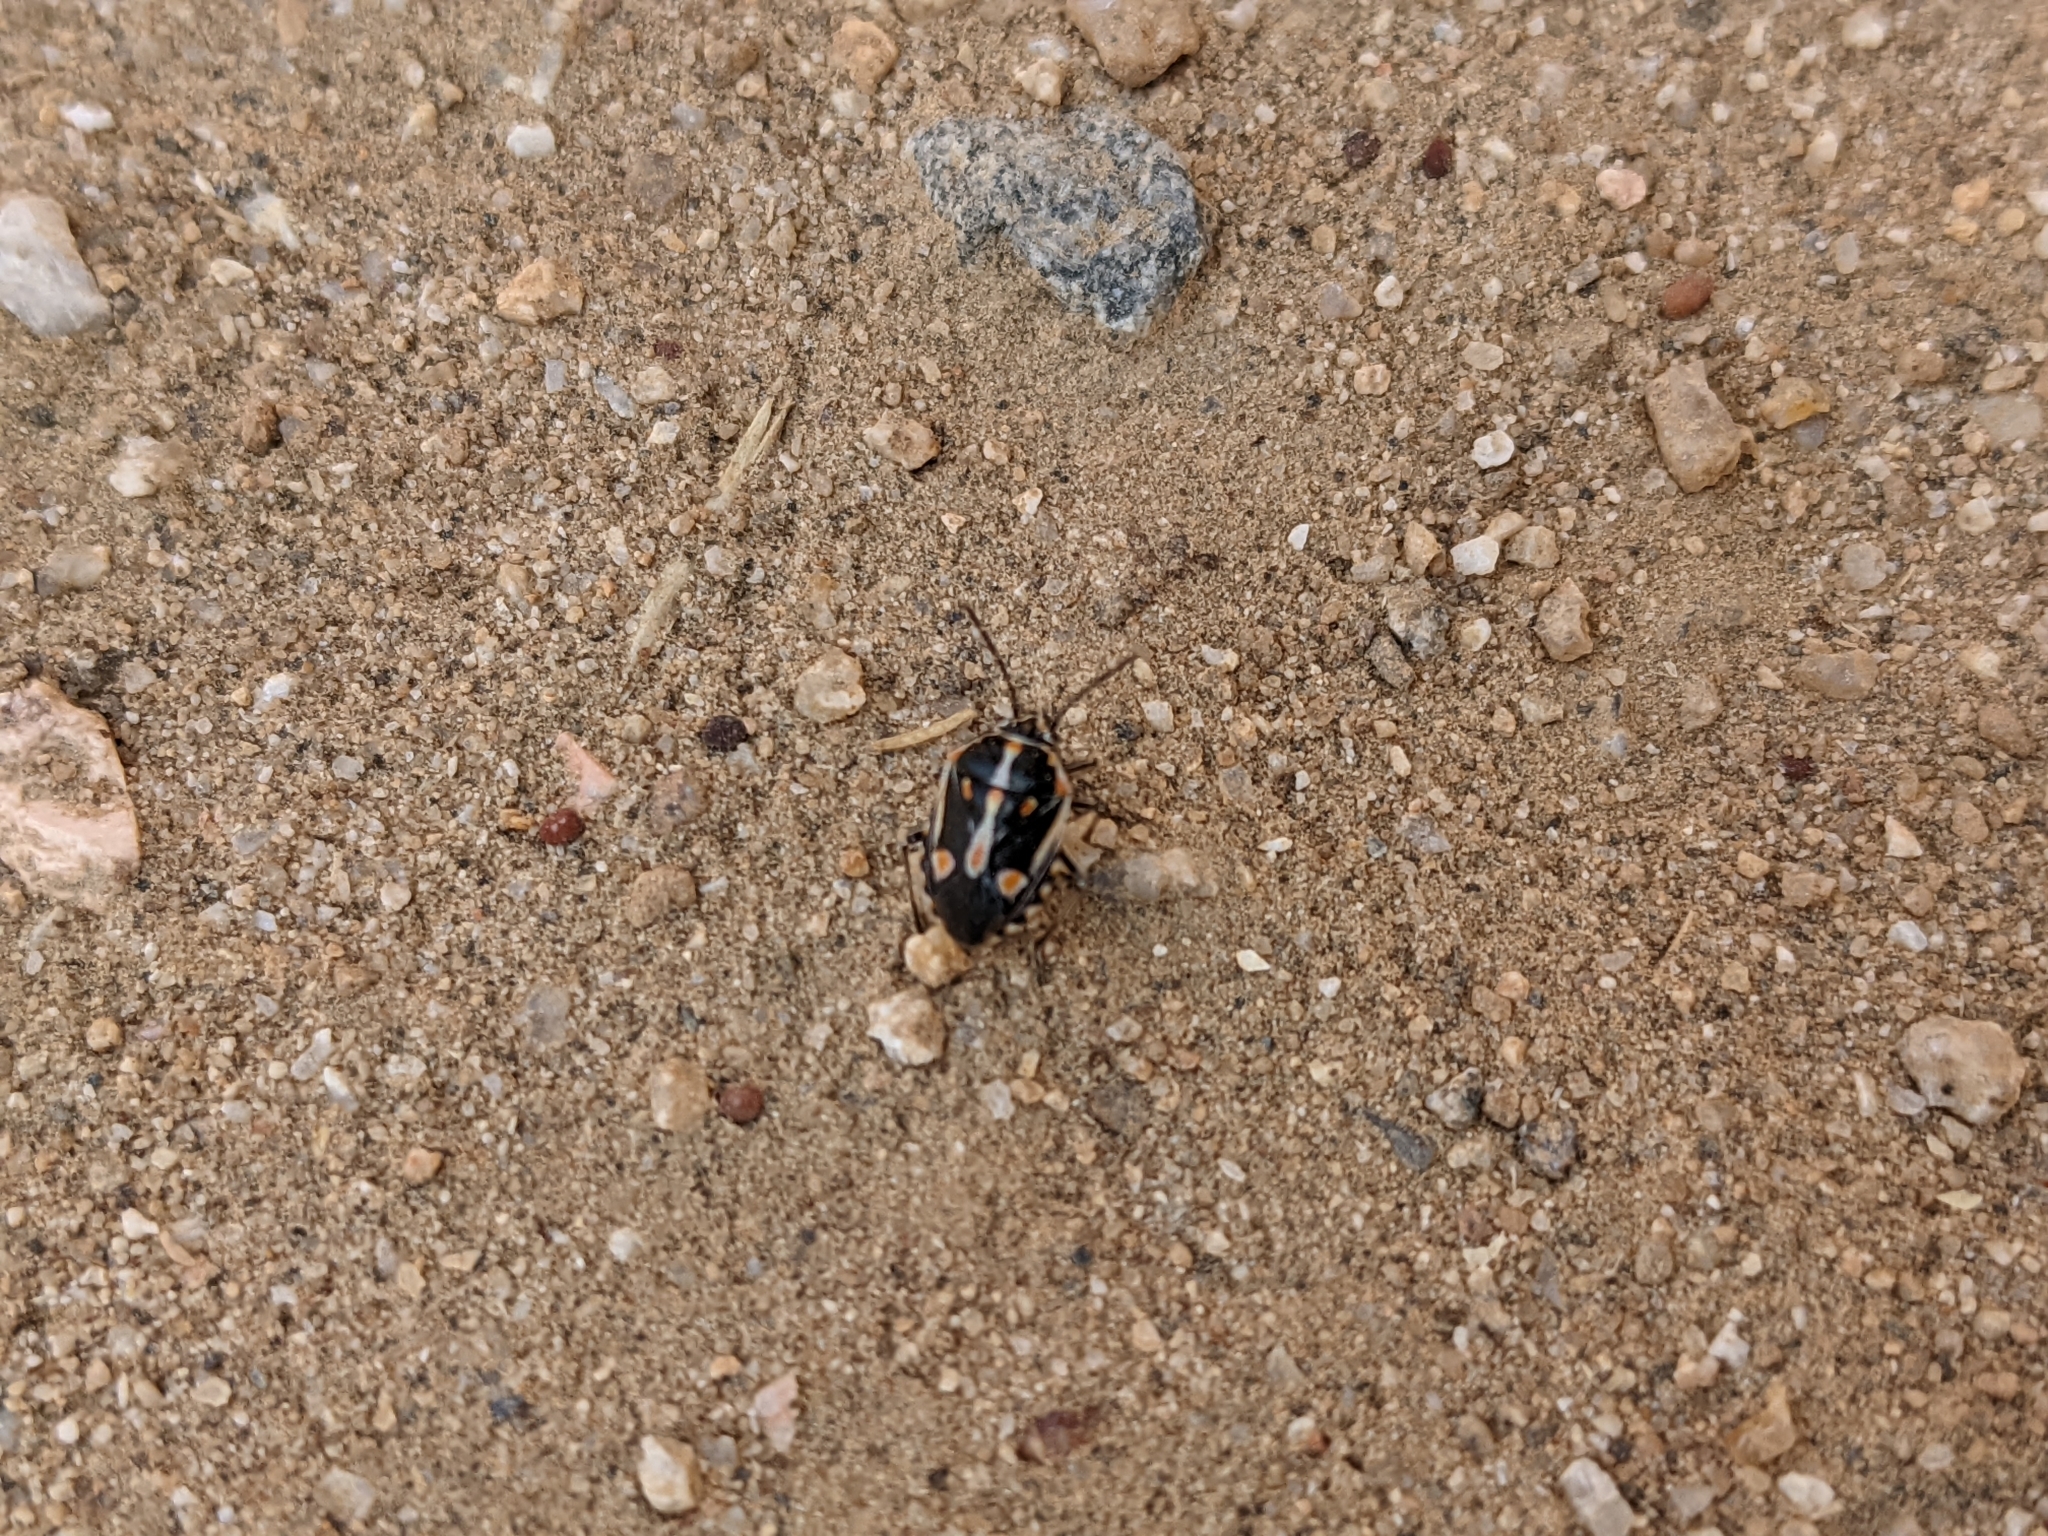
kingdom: Animalia
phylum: Arthropoda
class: Insecta
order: Hemiptera
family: Pentatomidae
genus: Bagrada
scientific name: Bagrada hilaris
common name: Bagrada bug
